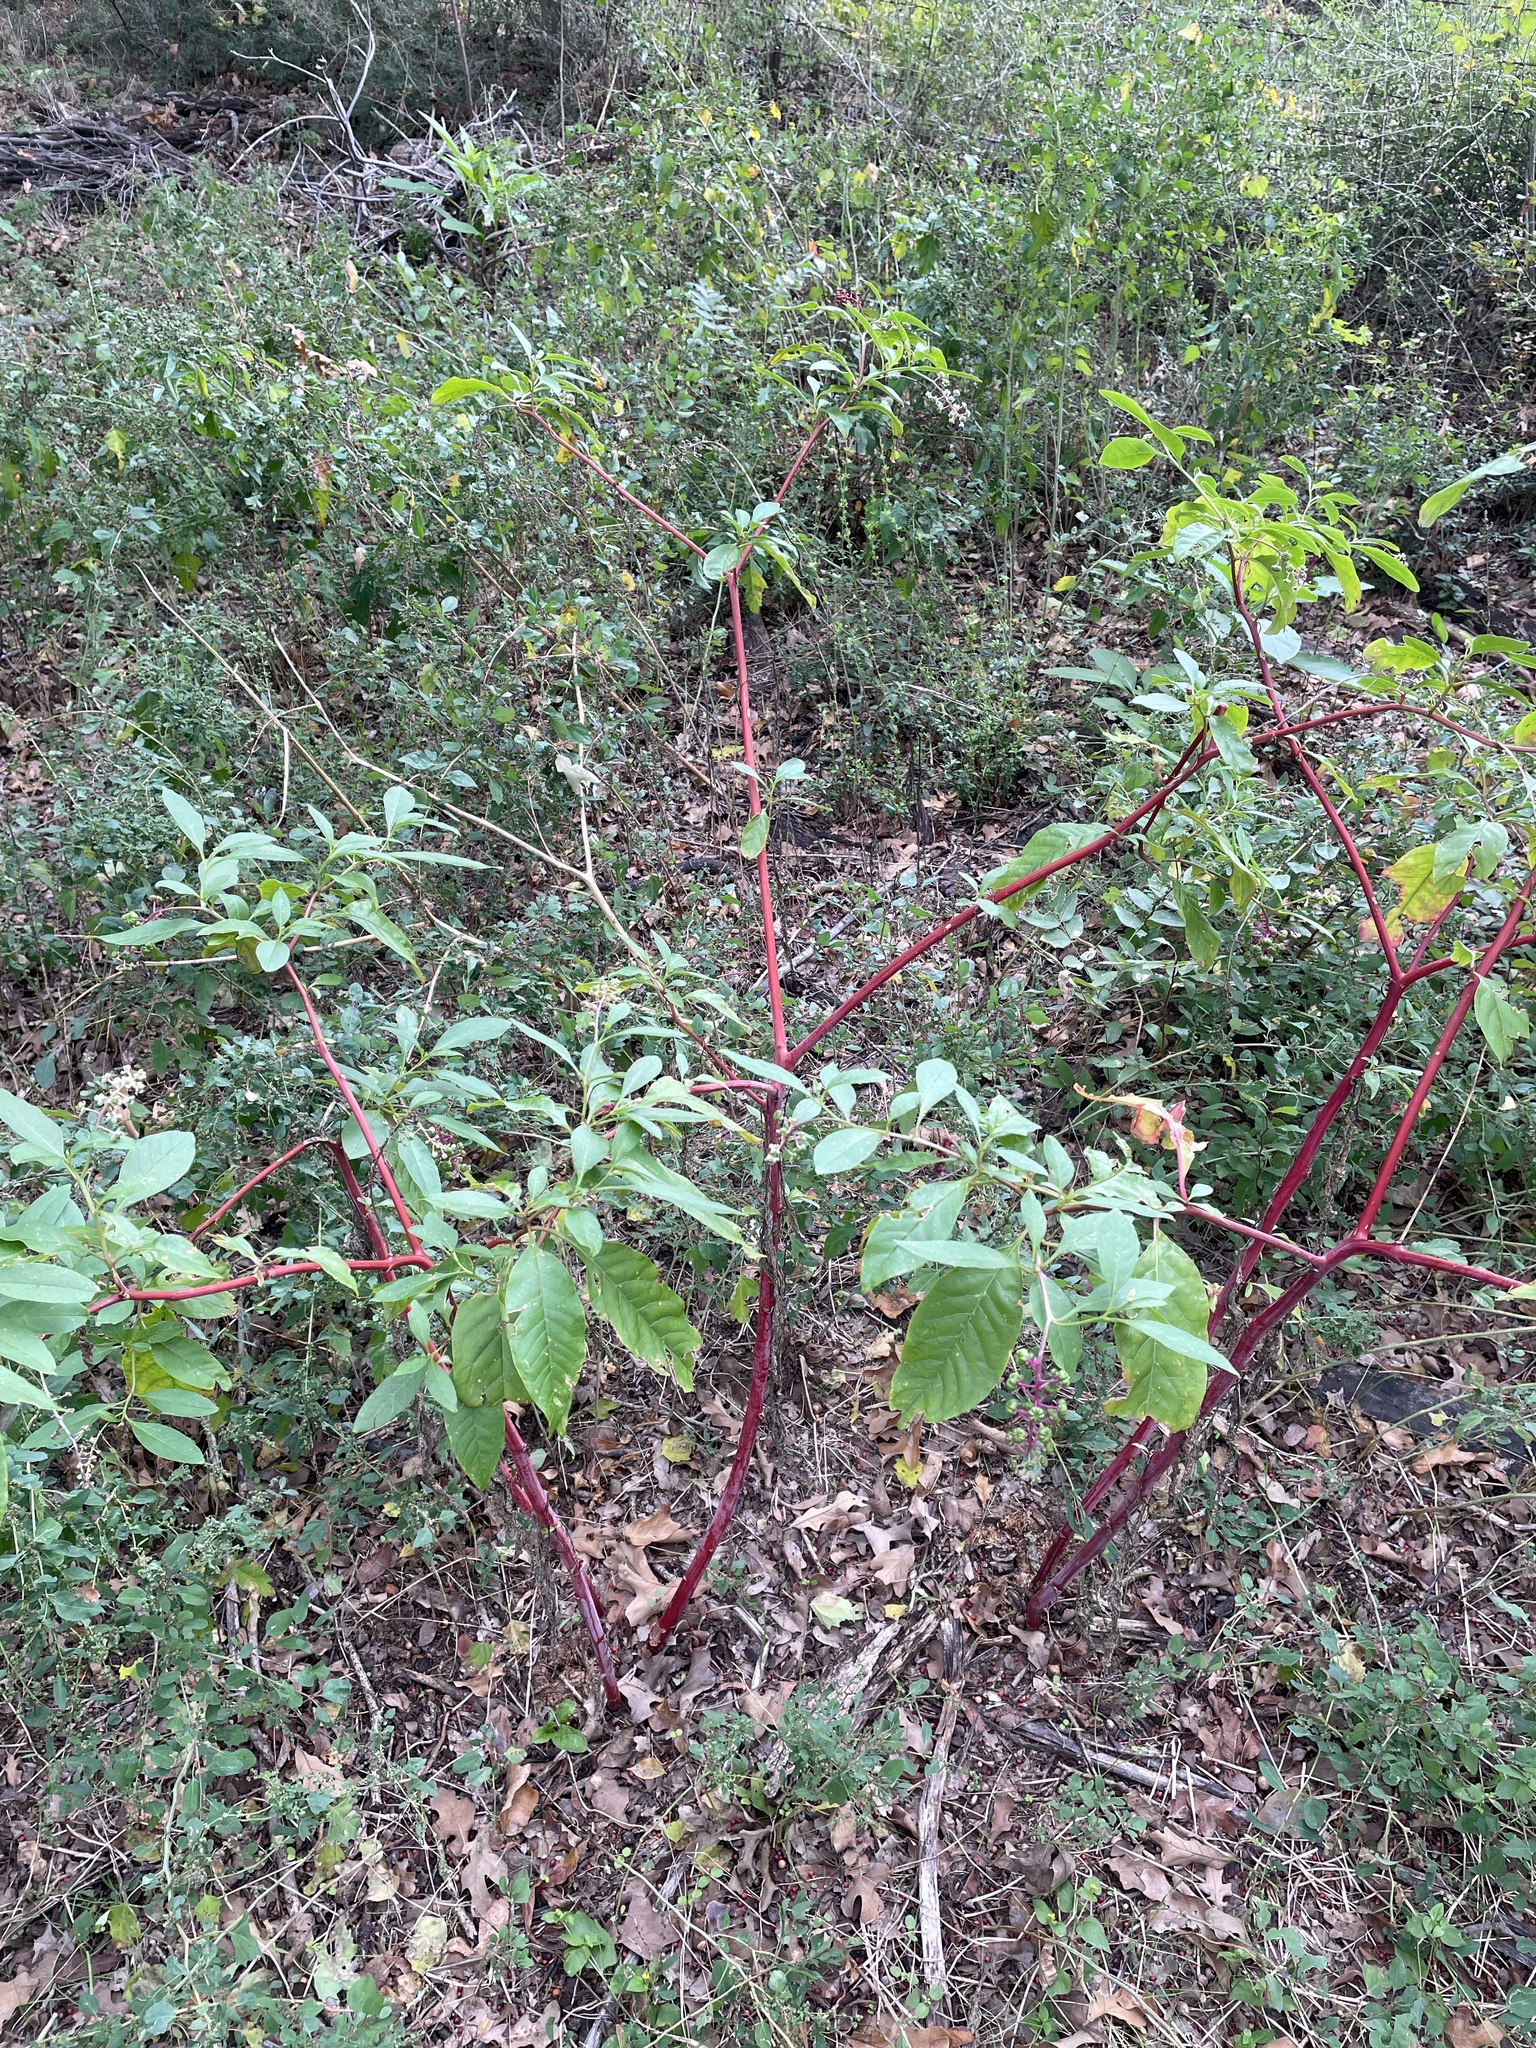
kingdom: Plantae
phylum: Tracheophyta
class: Magnoliopsida
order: Caryophyllales
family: Phytolaccaceae
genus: Phytolacca
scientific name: Phytolacca americana
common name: American pokeweed
